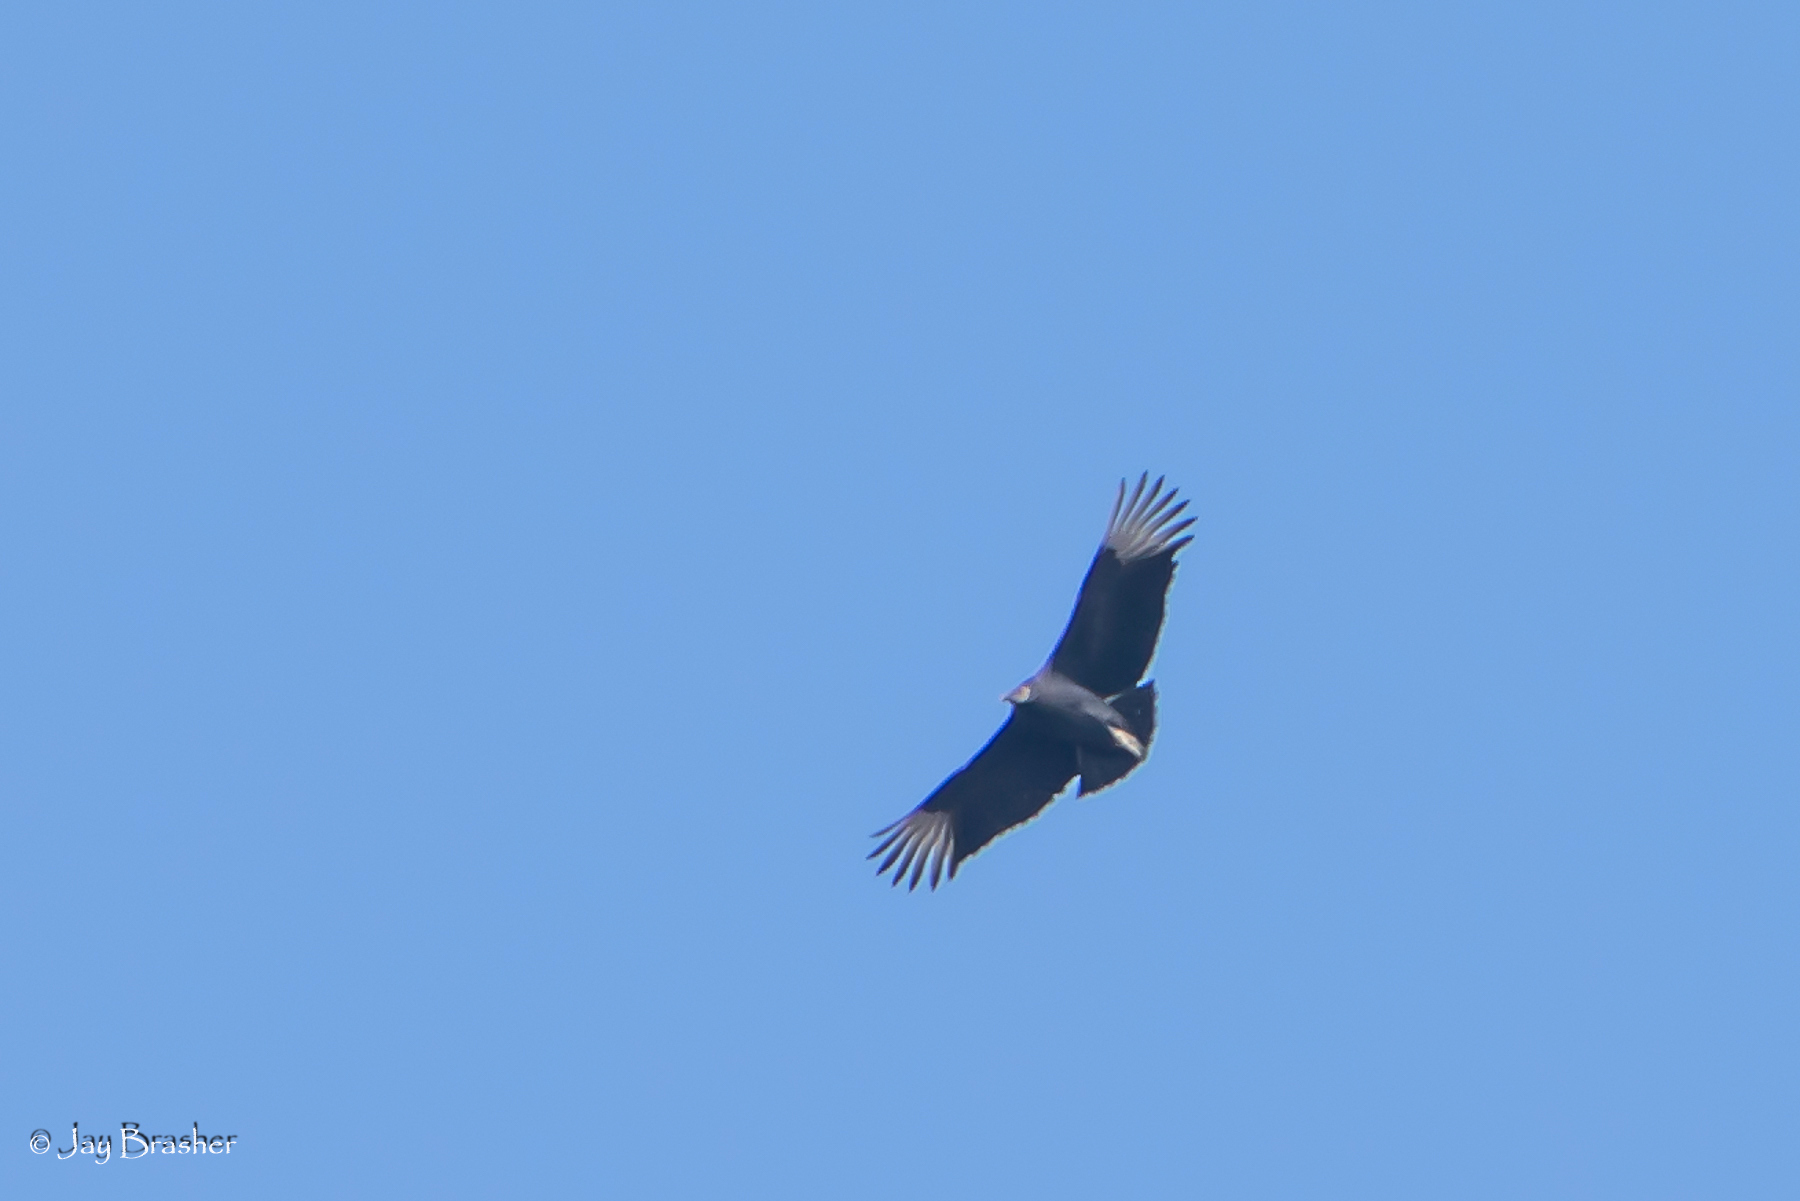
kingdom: Animalia
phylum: Chordata
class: Aves
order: Accipitriformes
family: Cathartidae
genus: Coragyps
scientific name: Coragyps atratus
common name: Black vulture
